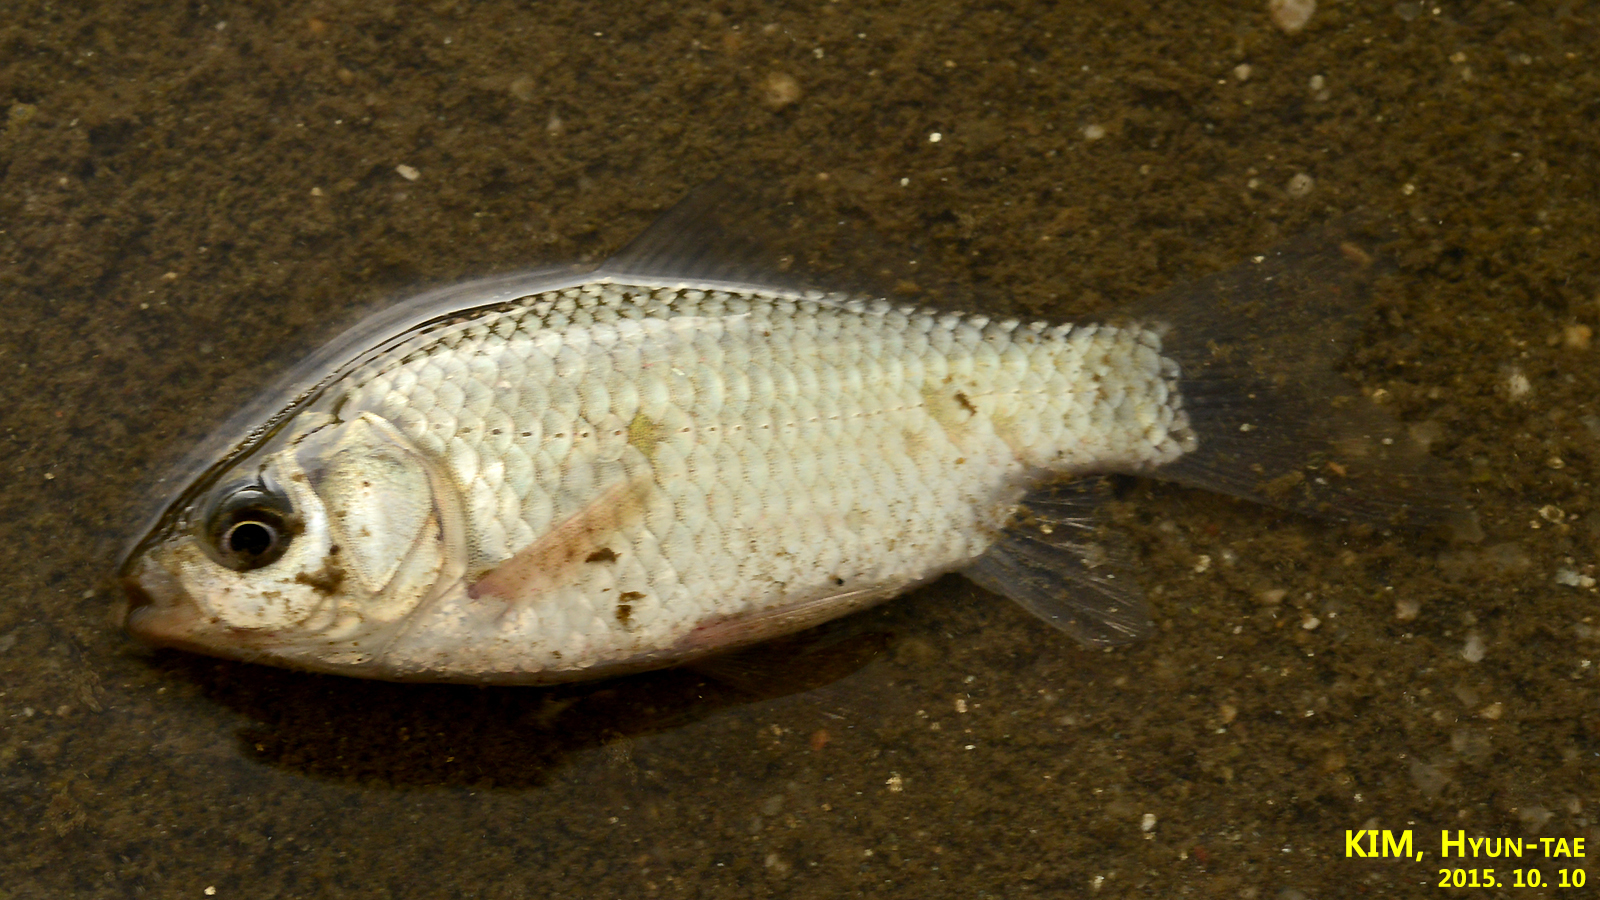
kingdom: Animalia
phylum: Chordata
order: Cypriniformes
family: Cyprinidae
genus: Carassius
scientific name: Carassius auratus
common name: Goldfish
